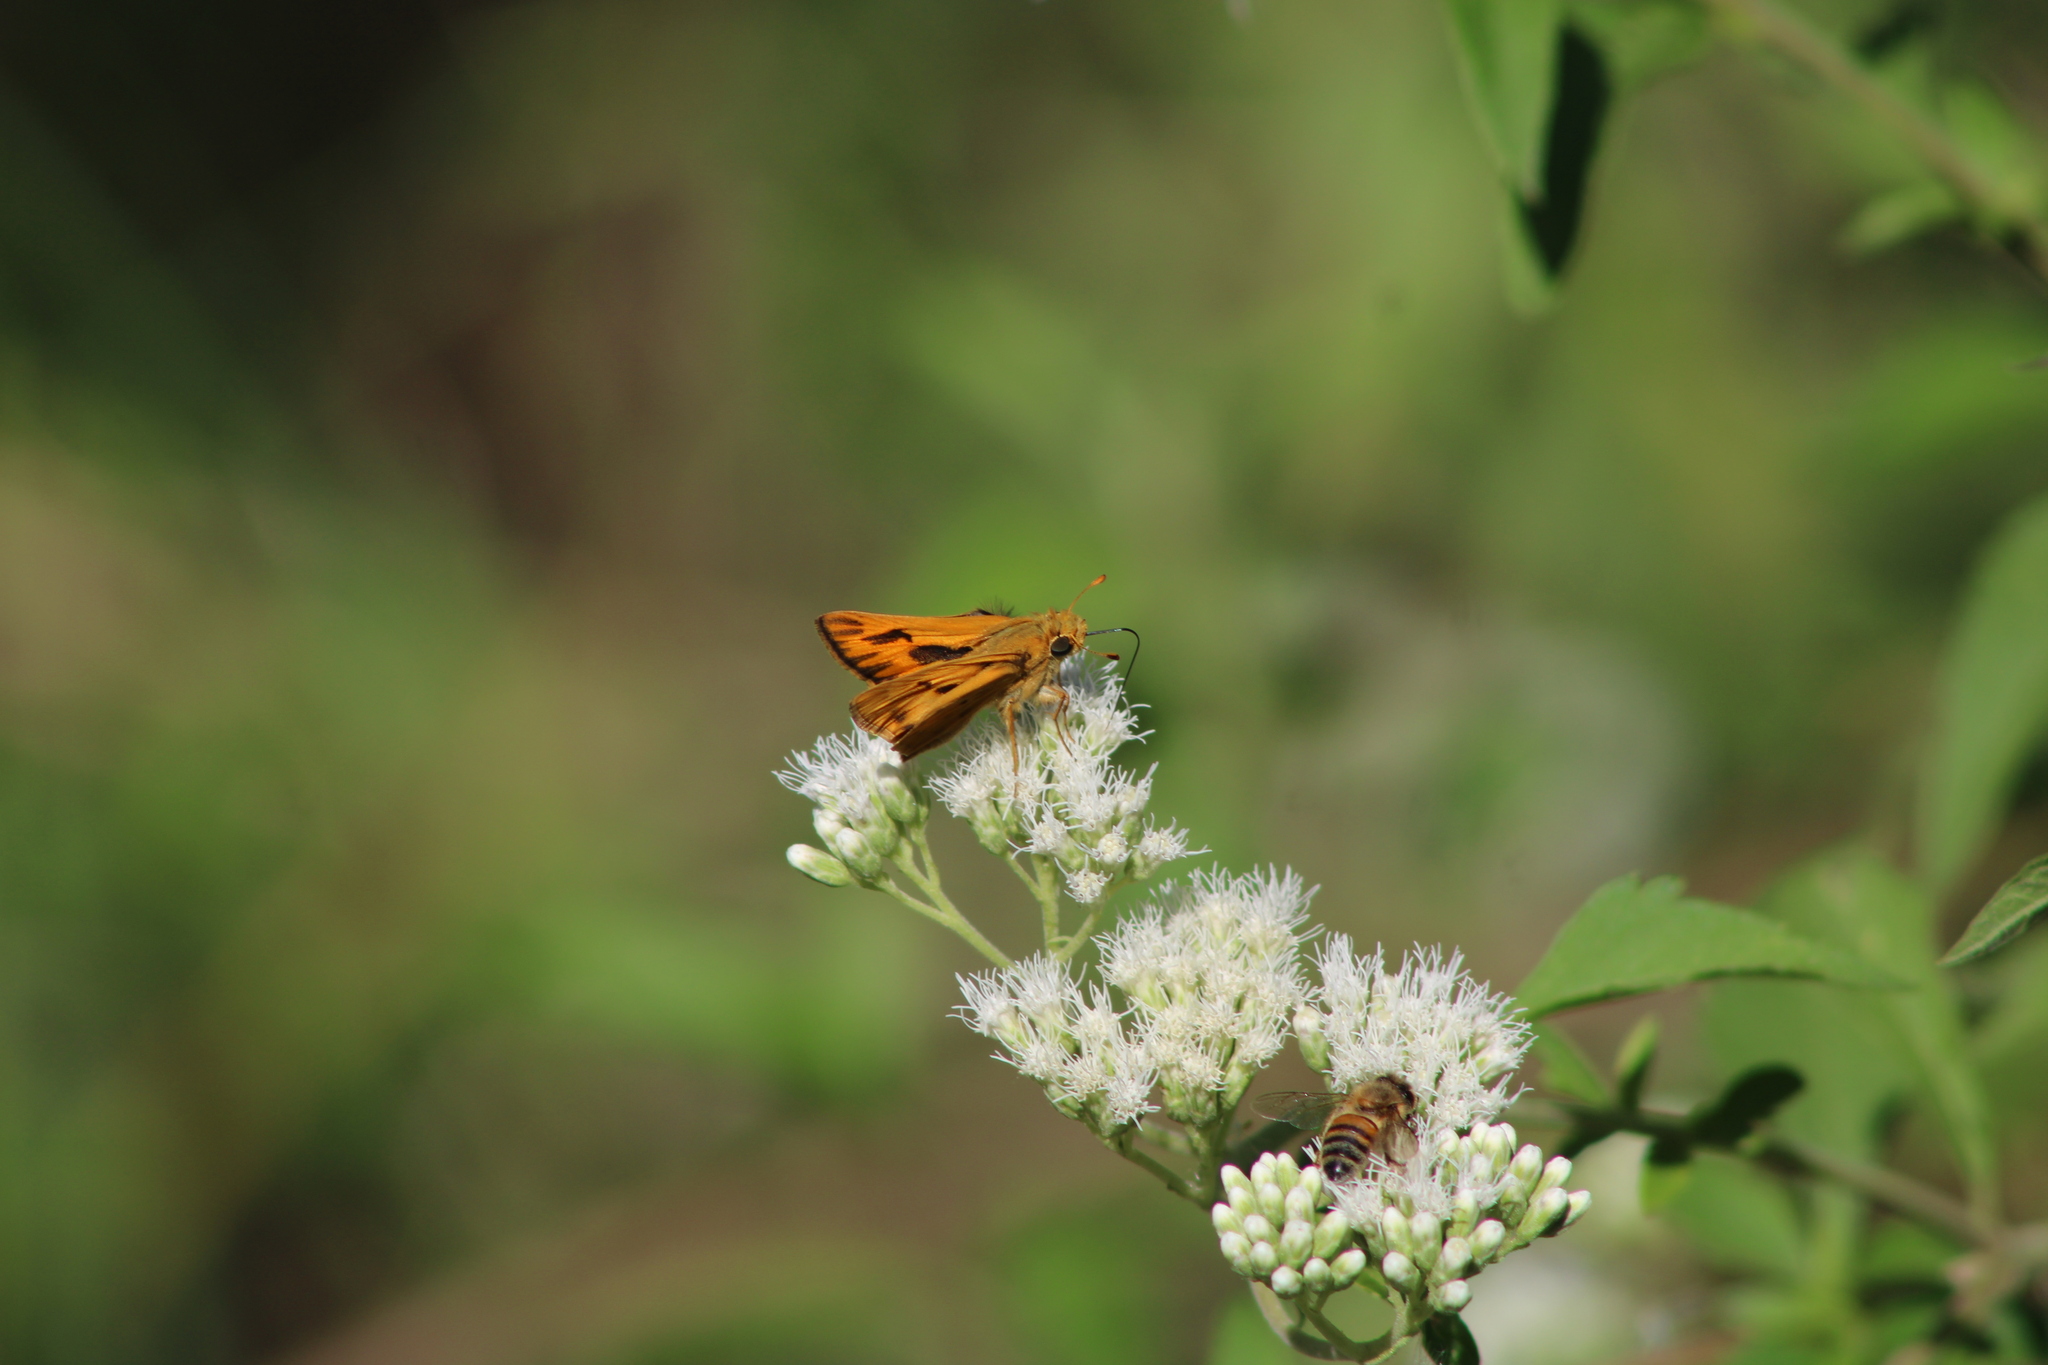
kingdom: Animalia
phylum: Arthropoda
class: Insecta
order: Lepidoptera
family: Hesperiidae
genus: Hylephila
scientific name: Hylephila phyleus
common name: Fiery skipper
